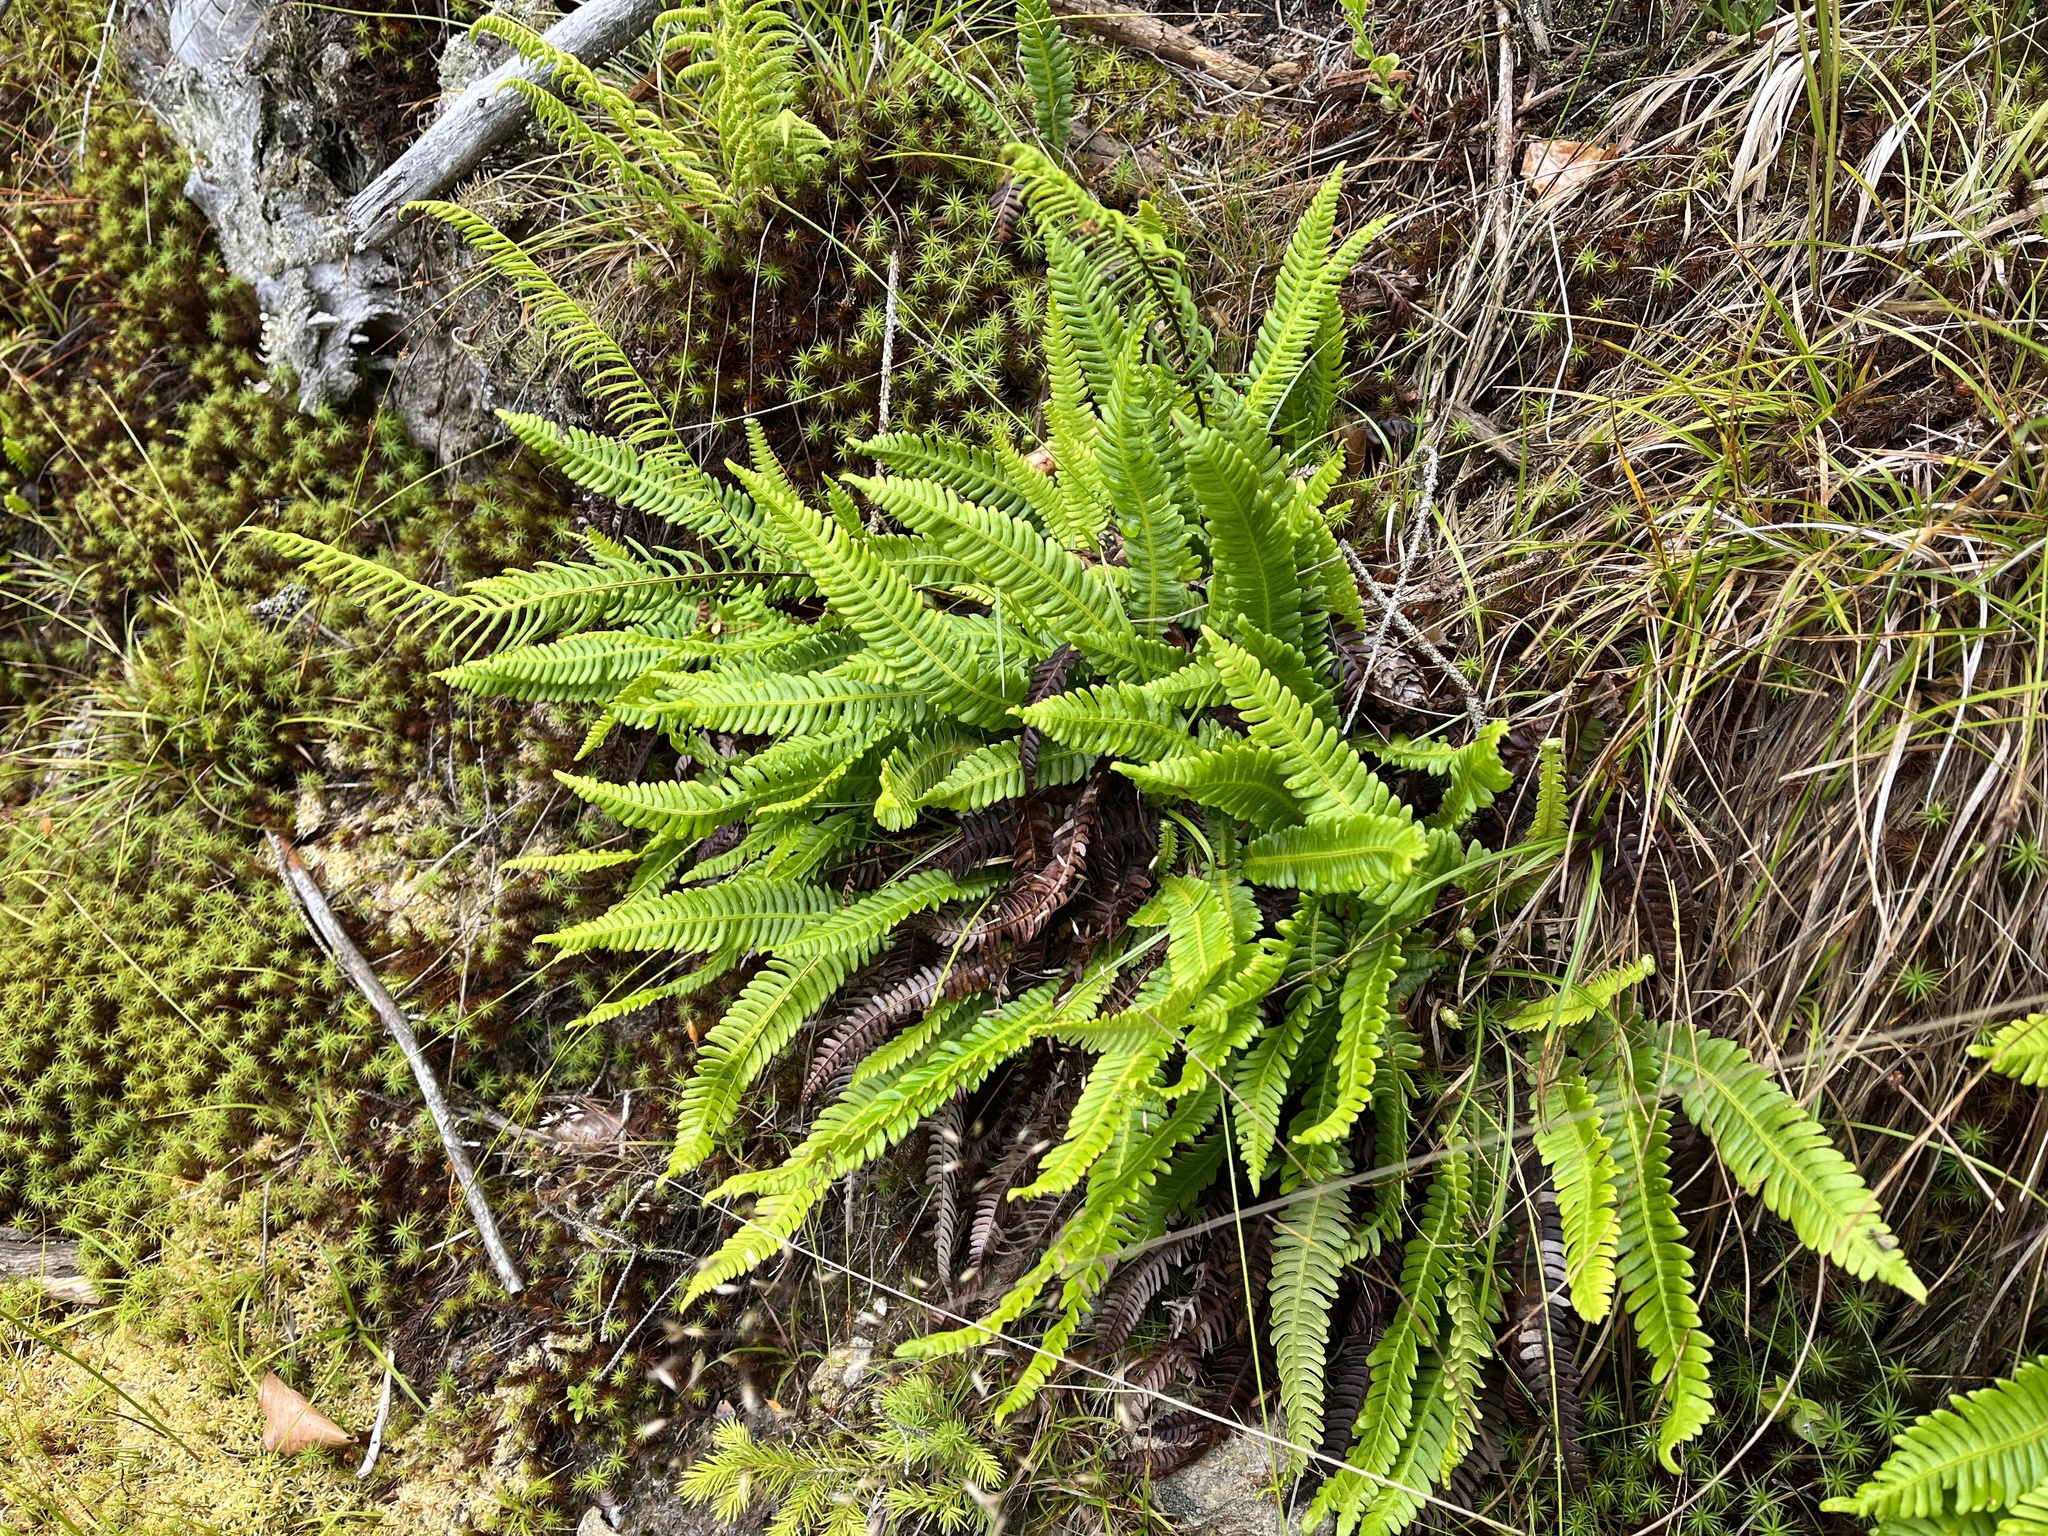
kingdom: Plantae
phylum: Tracheophyta
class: Polypodiopsida
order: Polypodiales
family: Blechnaceae
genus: Struthiopteris
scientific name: Struthiopteris spicant
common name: Deer fern
